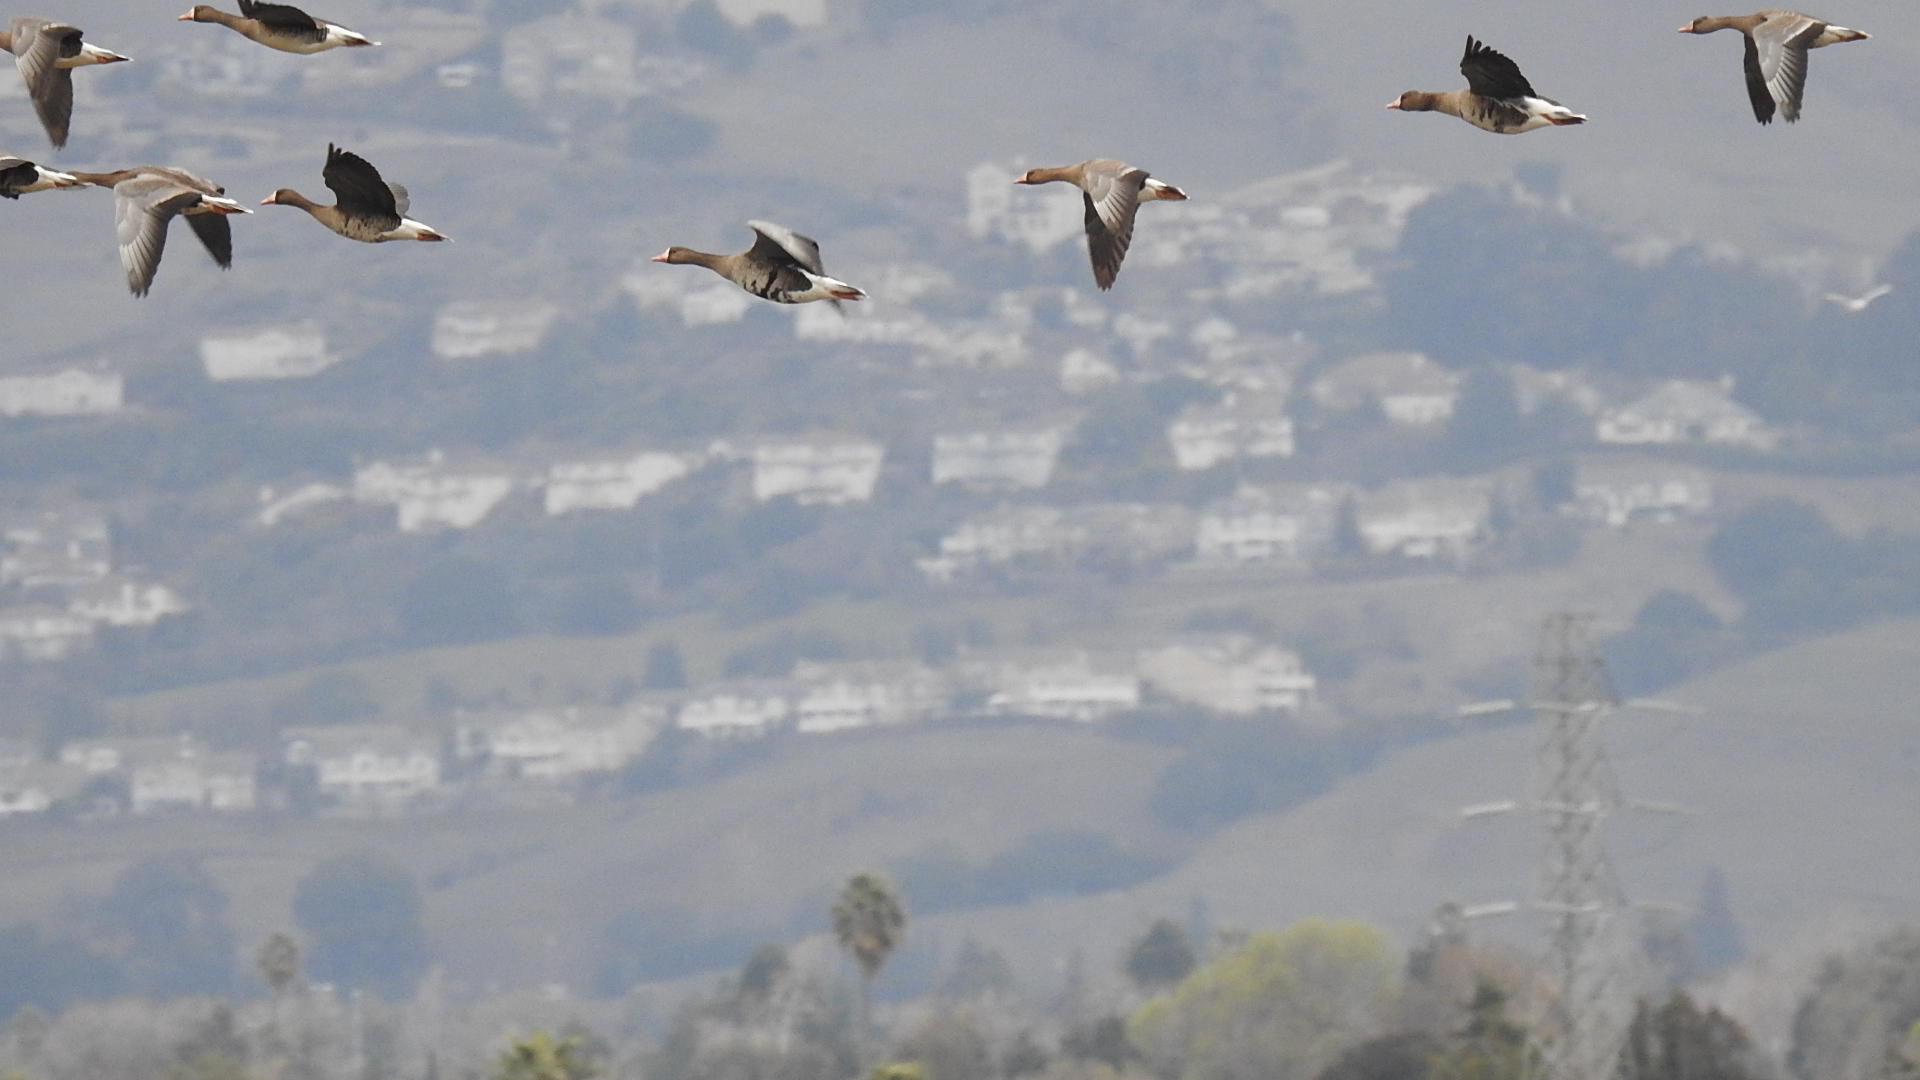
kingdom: Animalia
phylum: Chordata
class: Aves
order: Anseriformes
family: Anatidae
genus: Anser
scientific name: Anser albifrons
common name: Greater white-fronted goose
